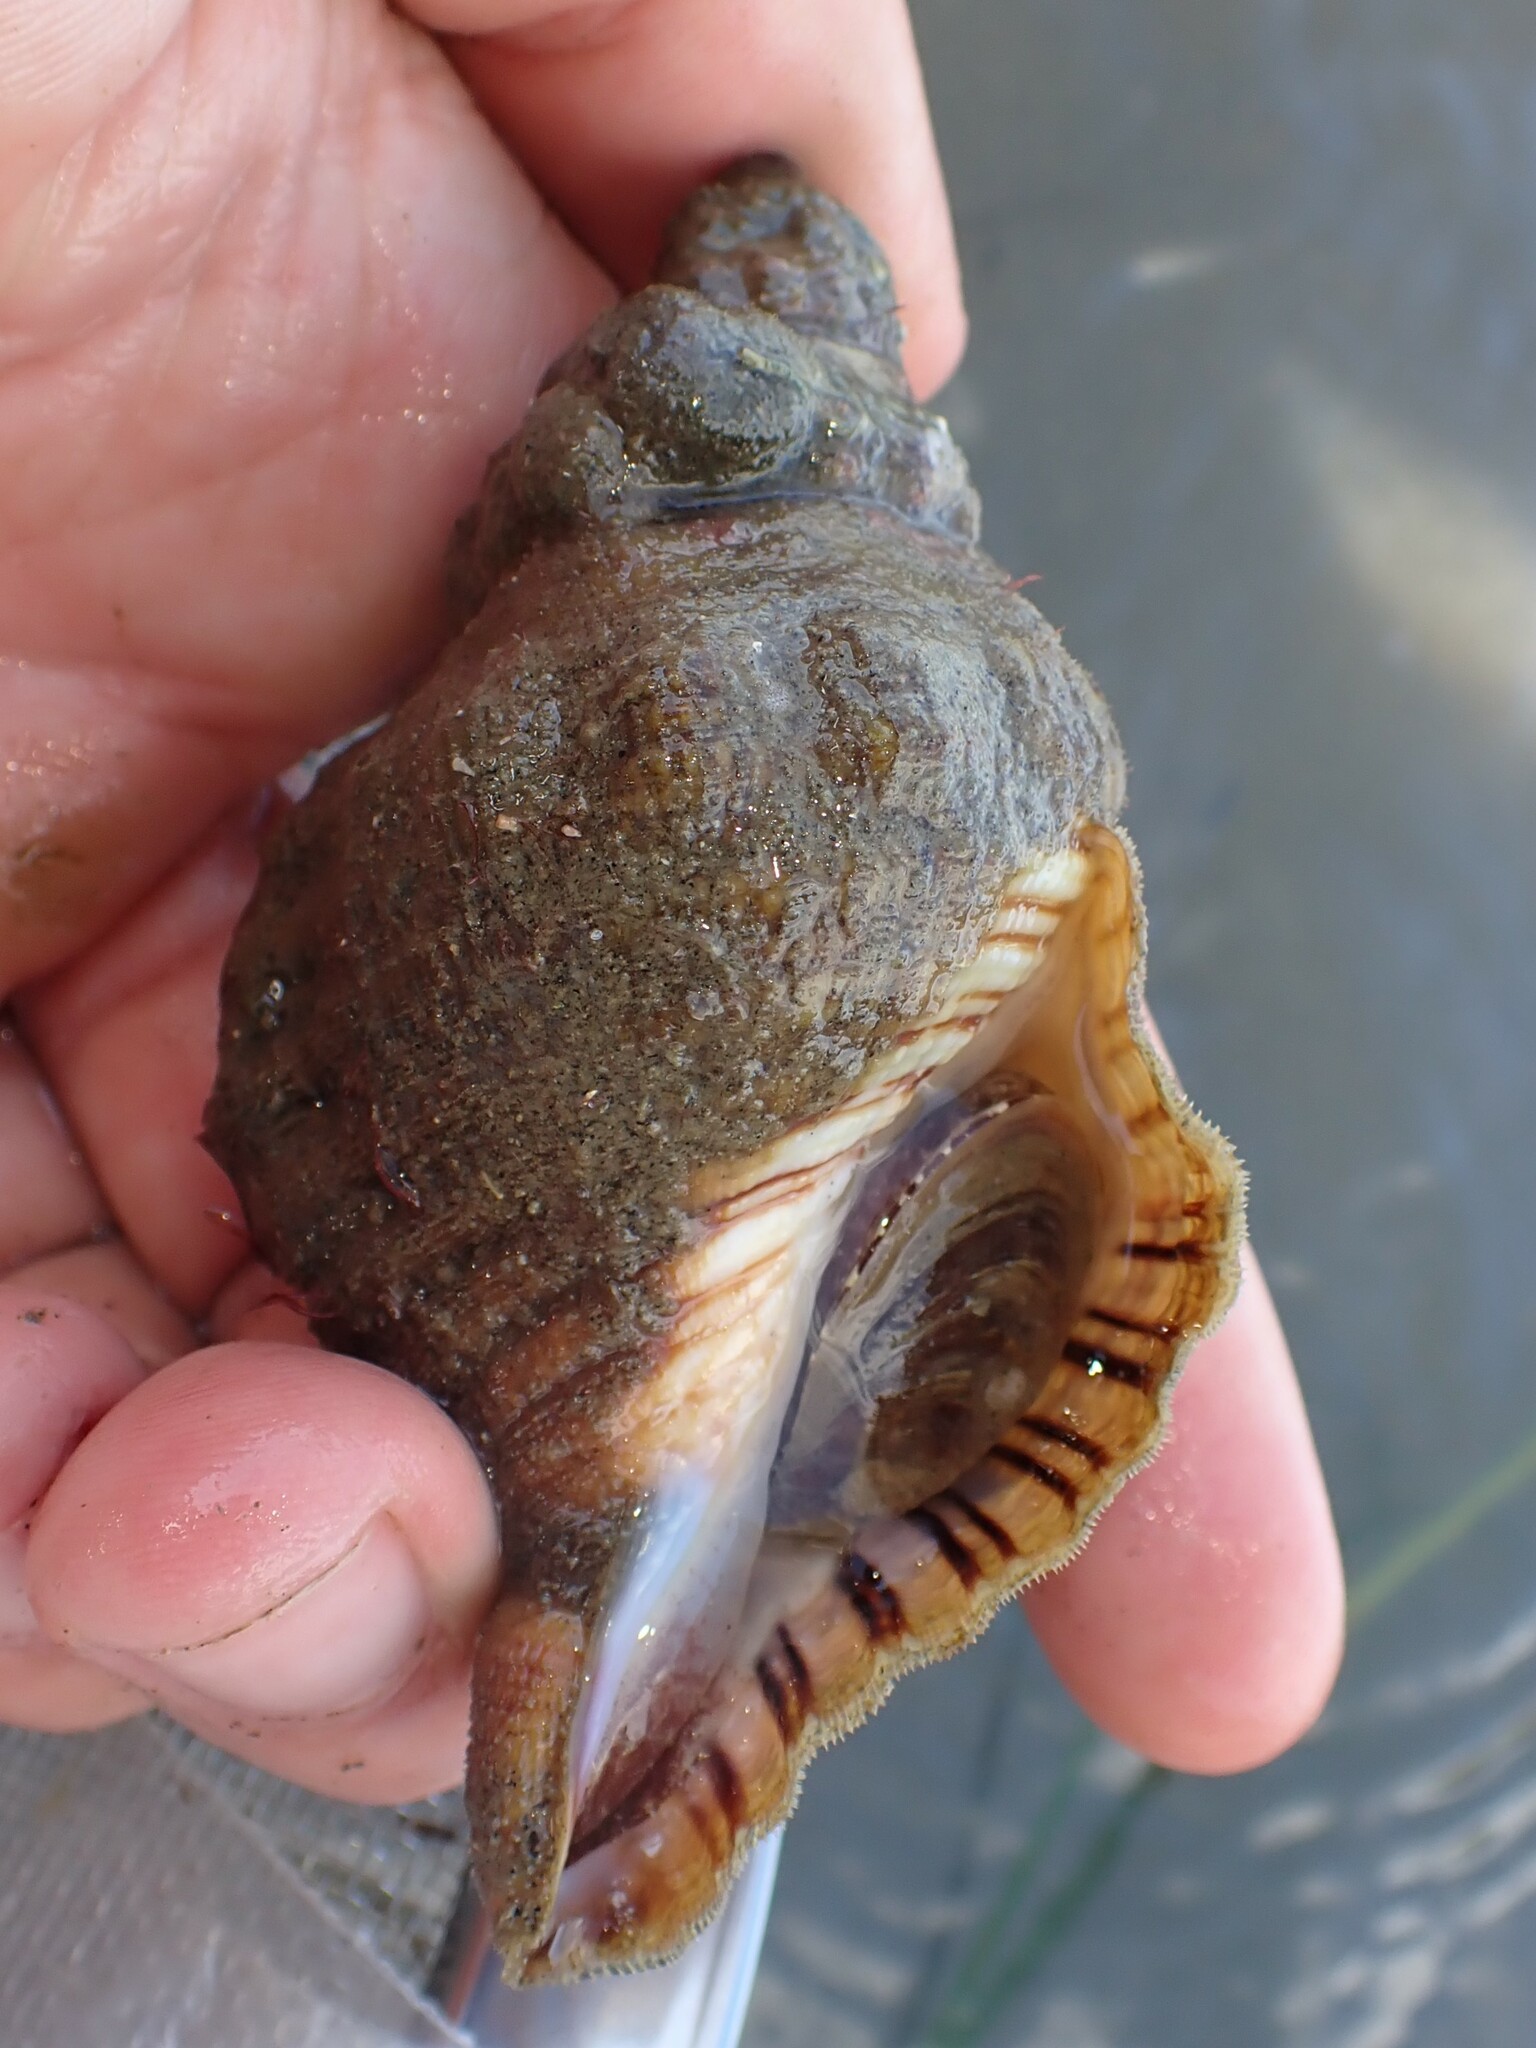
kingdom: Animalia
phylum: Mollusca
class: Gastropoda
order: Littorinimorpha
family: Cymatiidae
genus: Cabestana
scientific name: Cabestana spengleri
